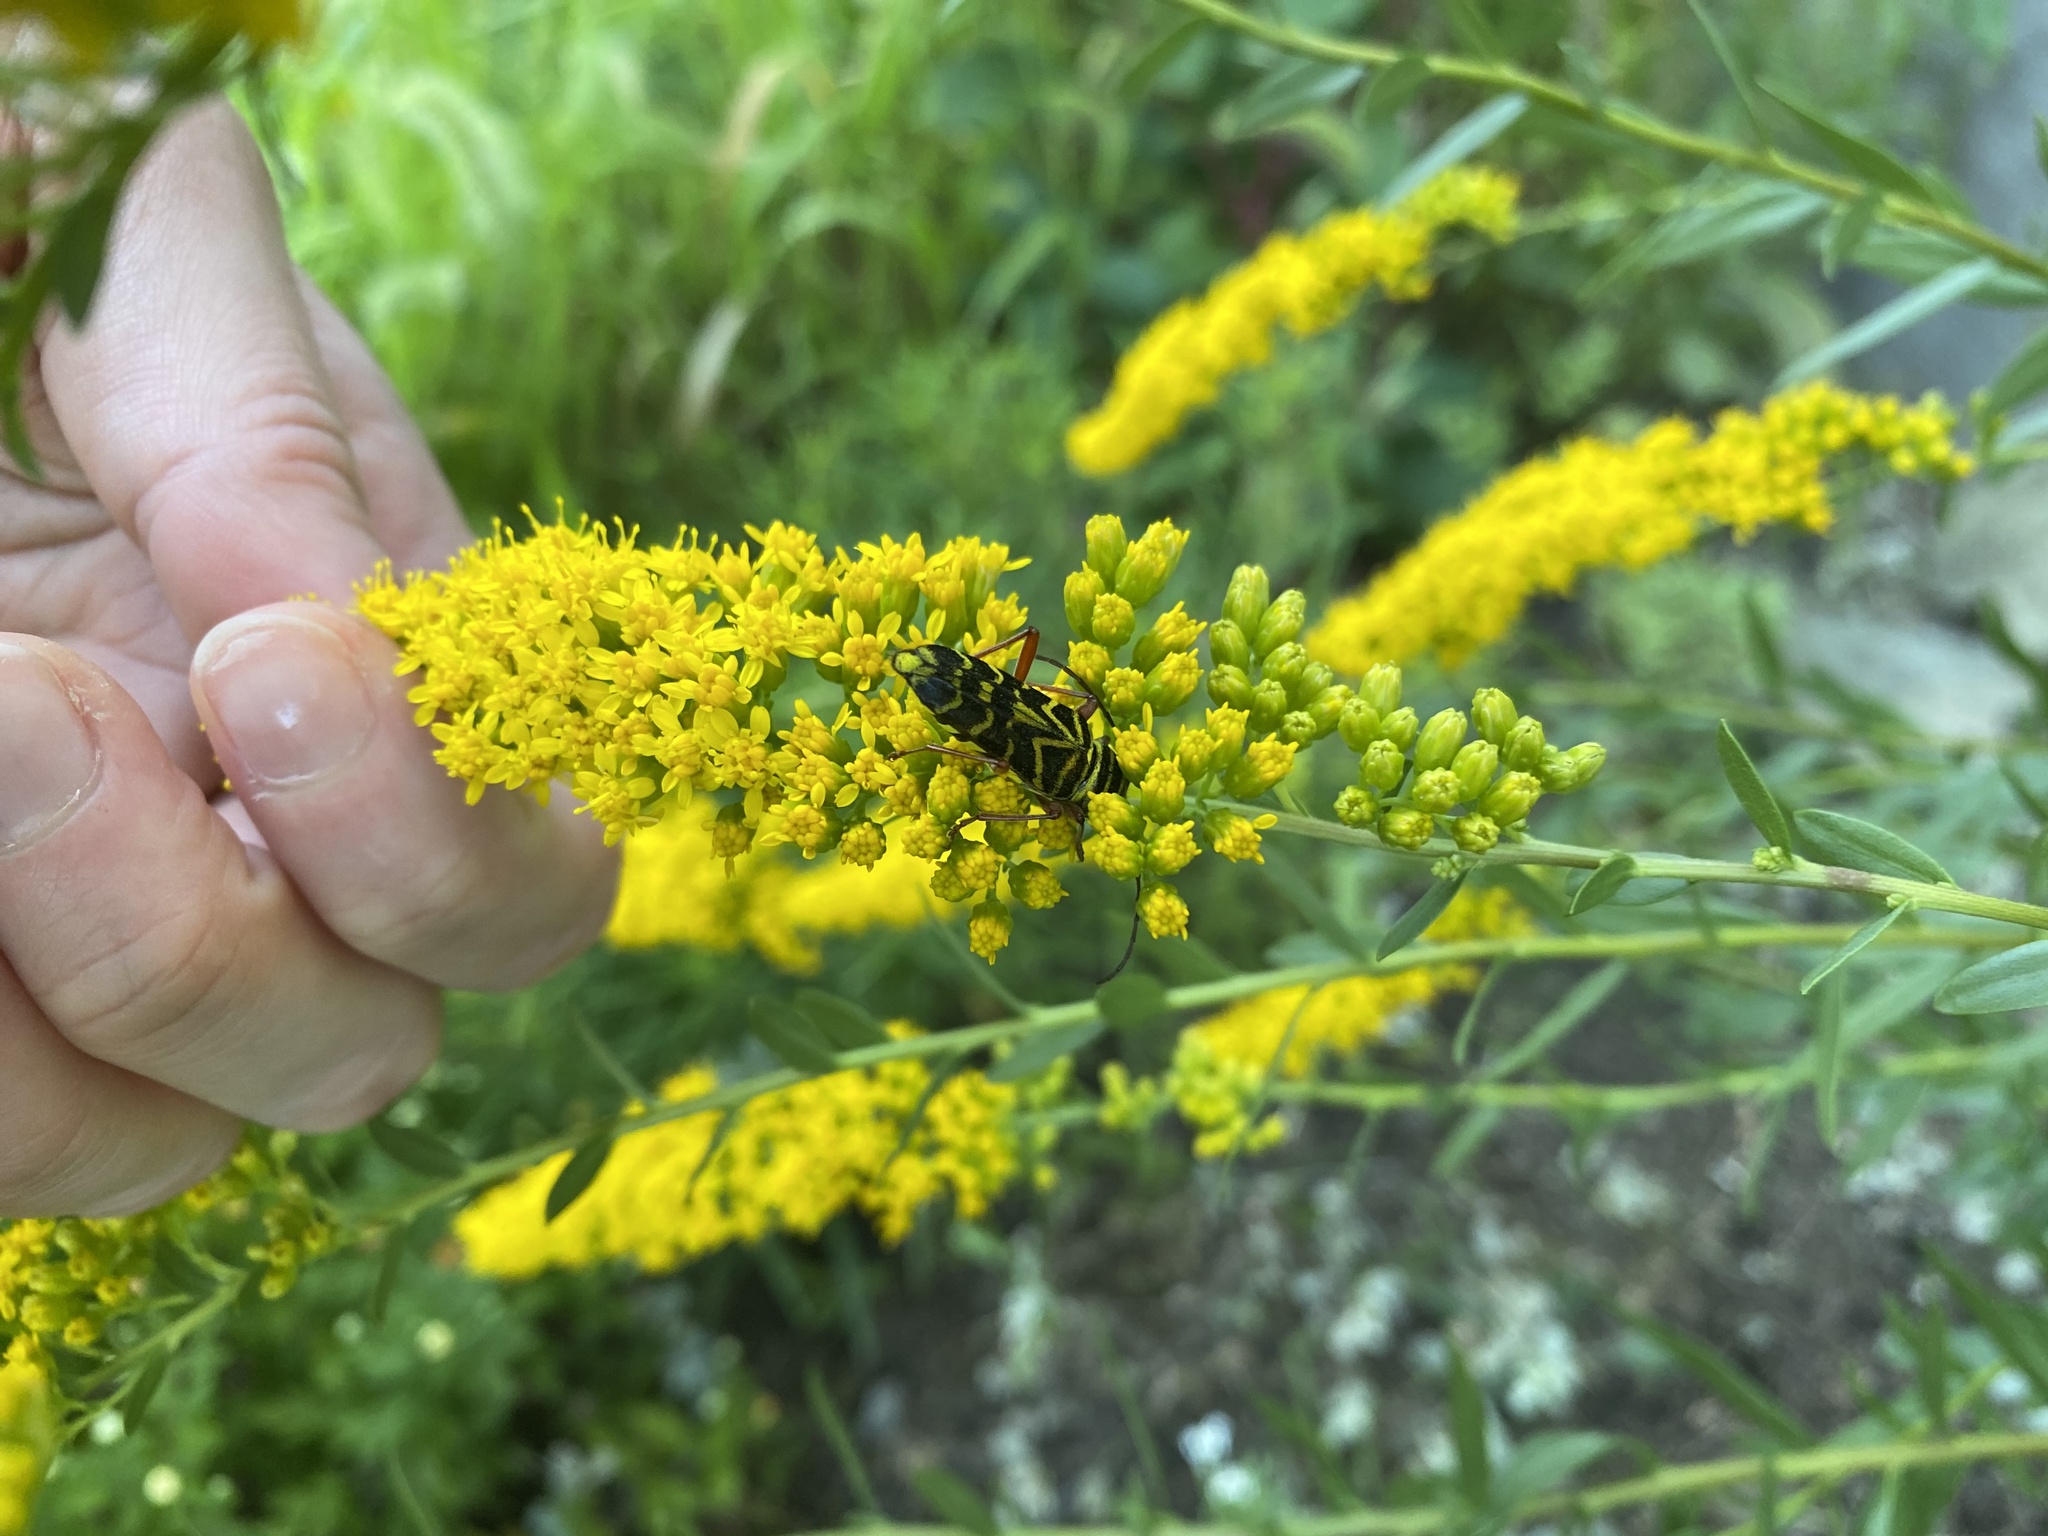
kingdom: Animalia
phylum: Arthropoda
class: Insecta
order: Coleoptera
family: Cerambycidae
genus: Megacyllene
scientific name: Megacyllene robiniae
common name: Locust borer
